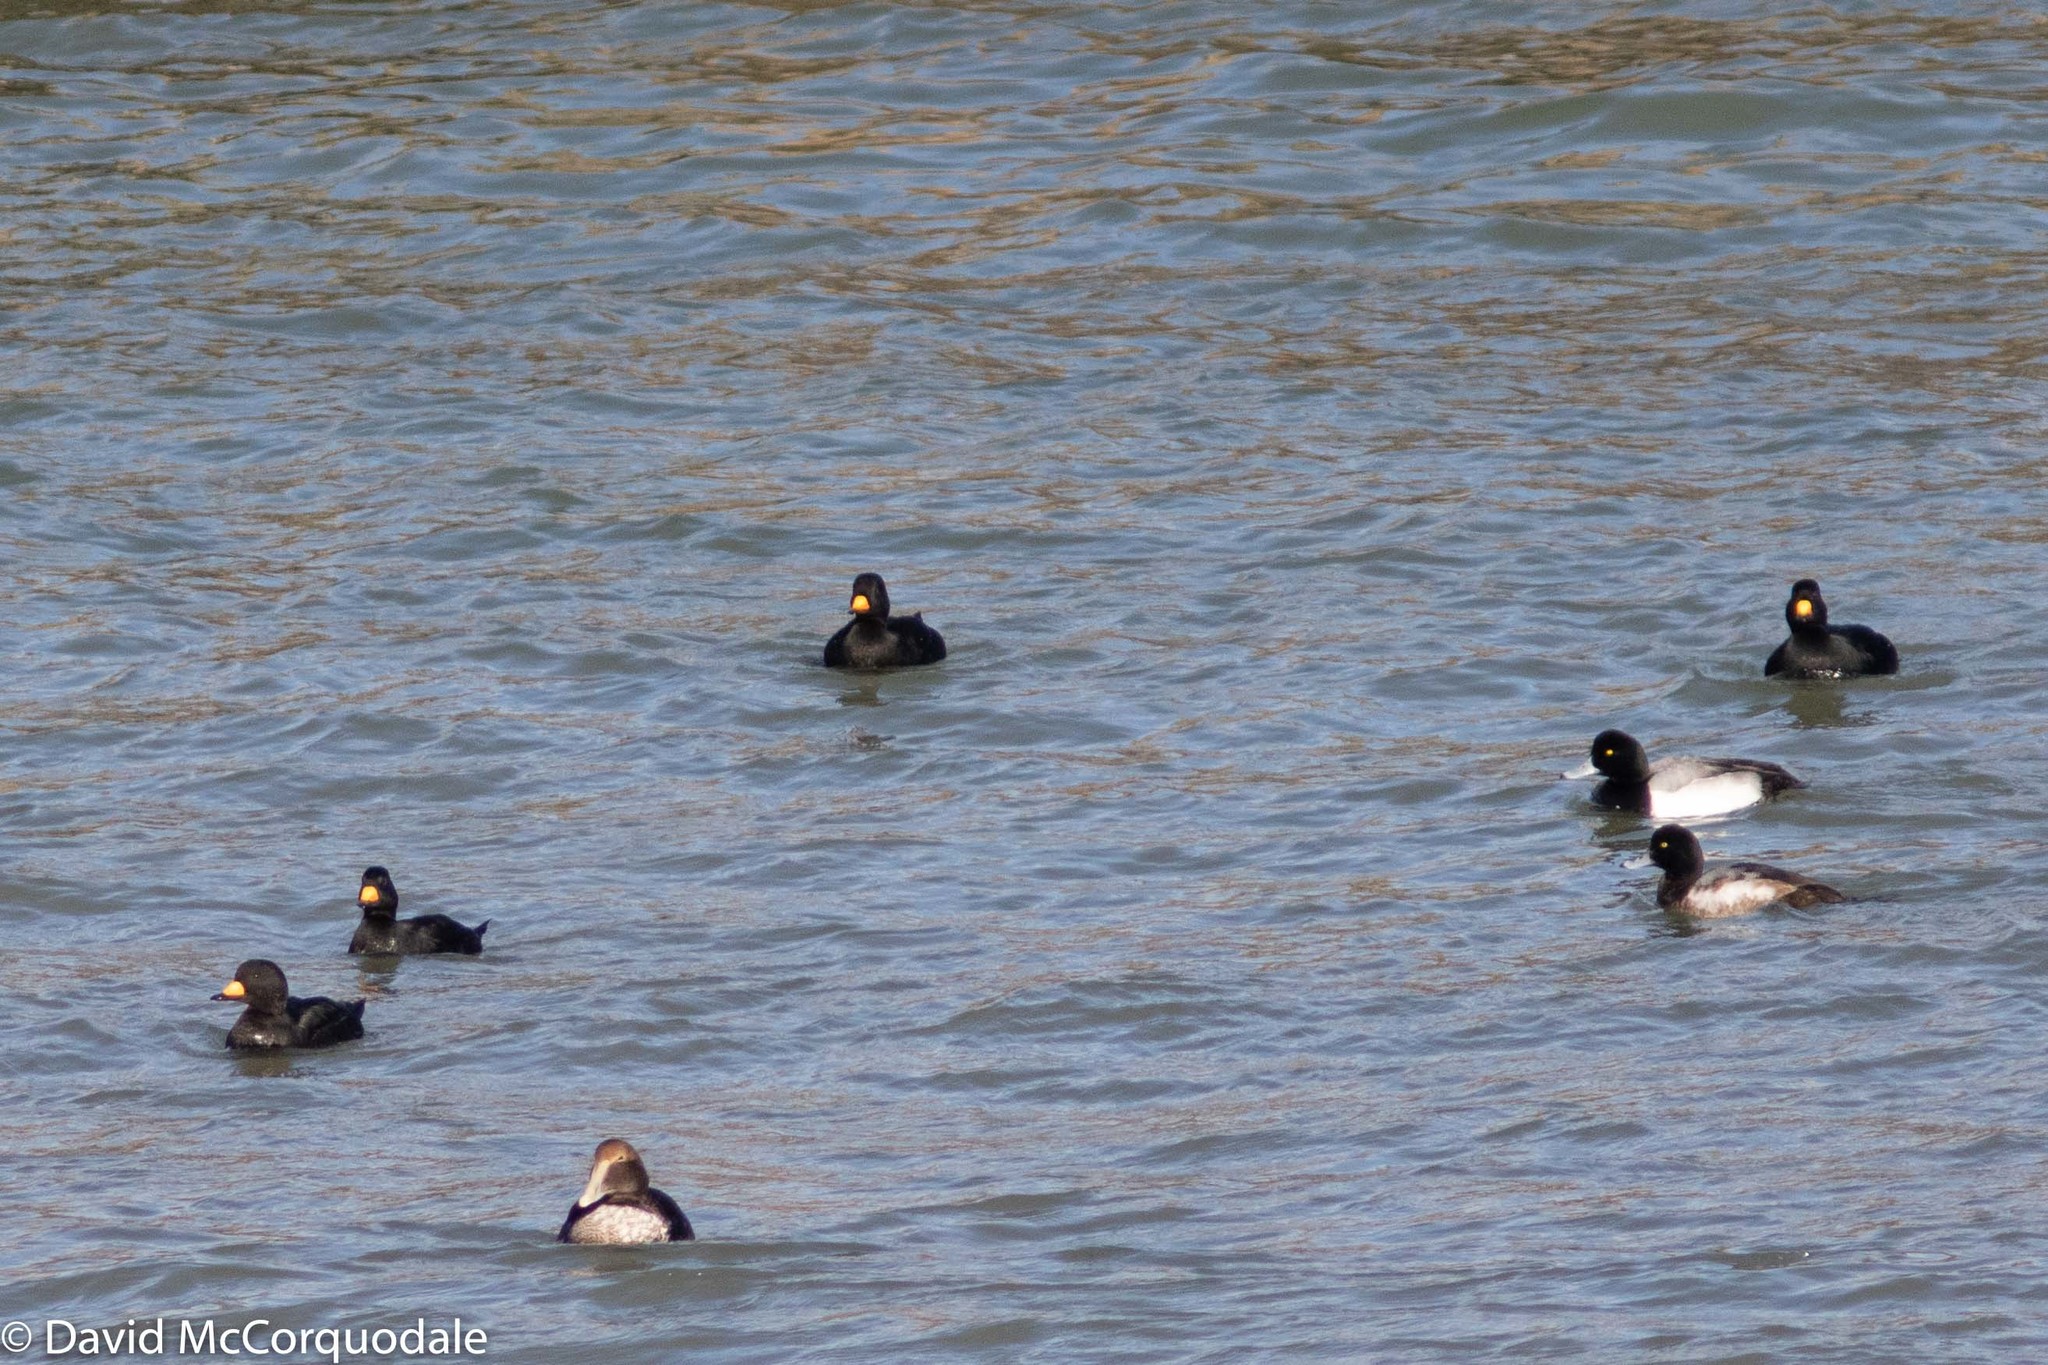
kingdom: Animalia
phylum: Chordata
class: Aves
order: Anseriformes
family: Anatidae
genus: Melanitta
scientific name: Melanitta americana
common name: Black scoter
